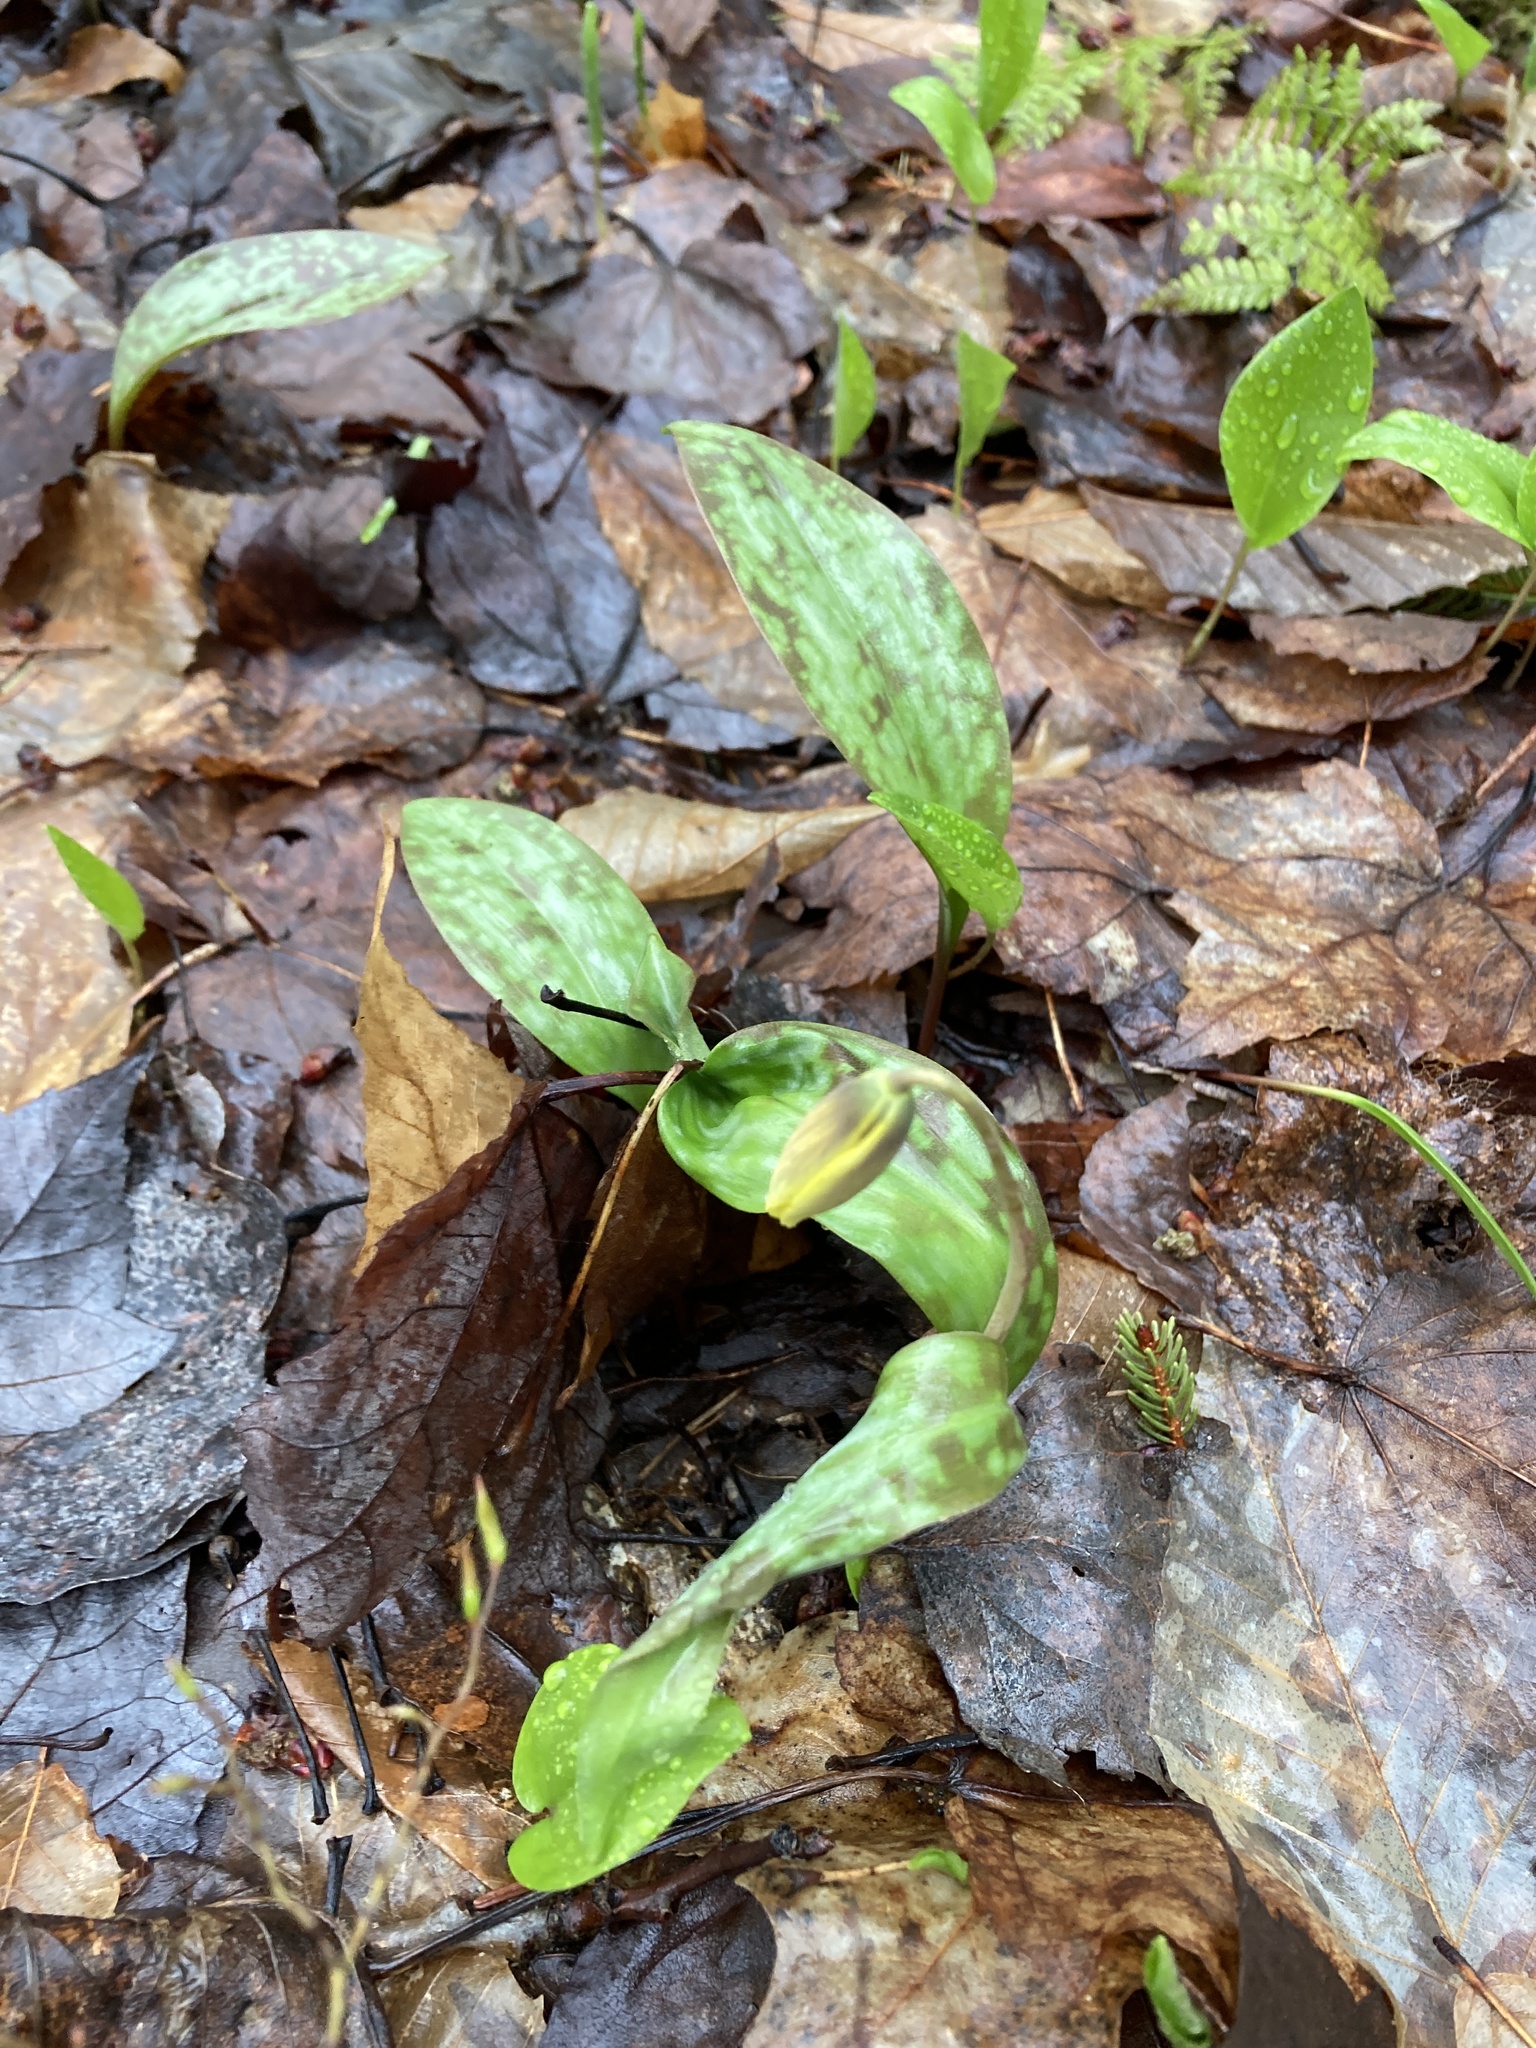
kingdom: Plantae
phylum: Tracheophyta
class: Liliopsida
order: Liliales
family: Liliaceae
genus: Erythronium
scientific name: Erythronium americanum
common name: Yellow adder's-tongue
